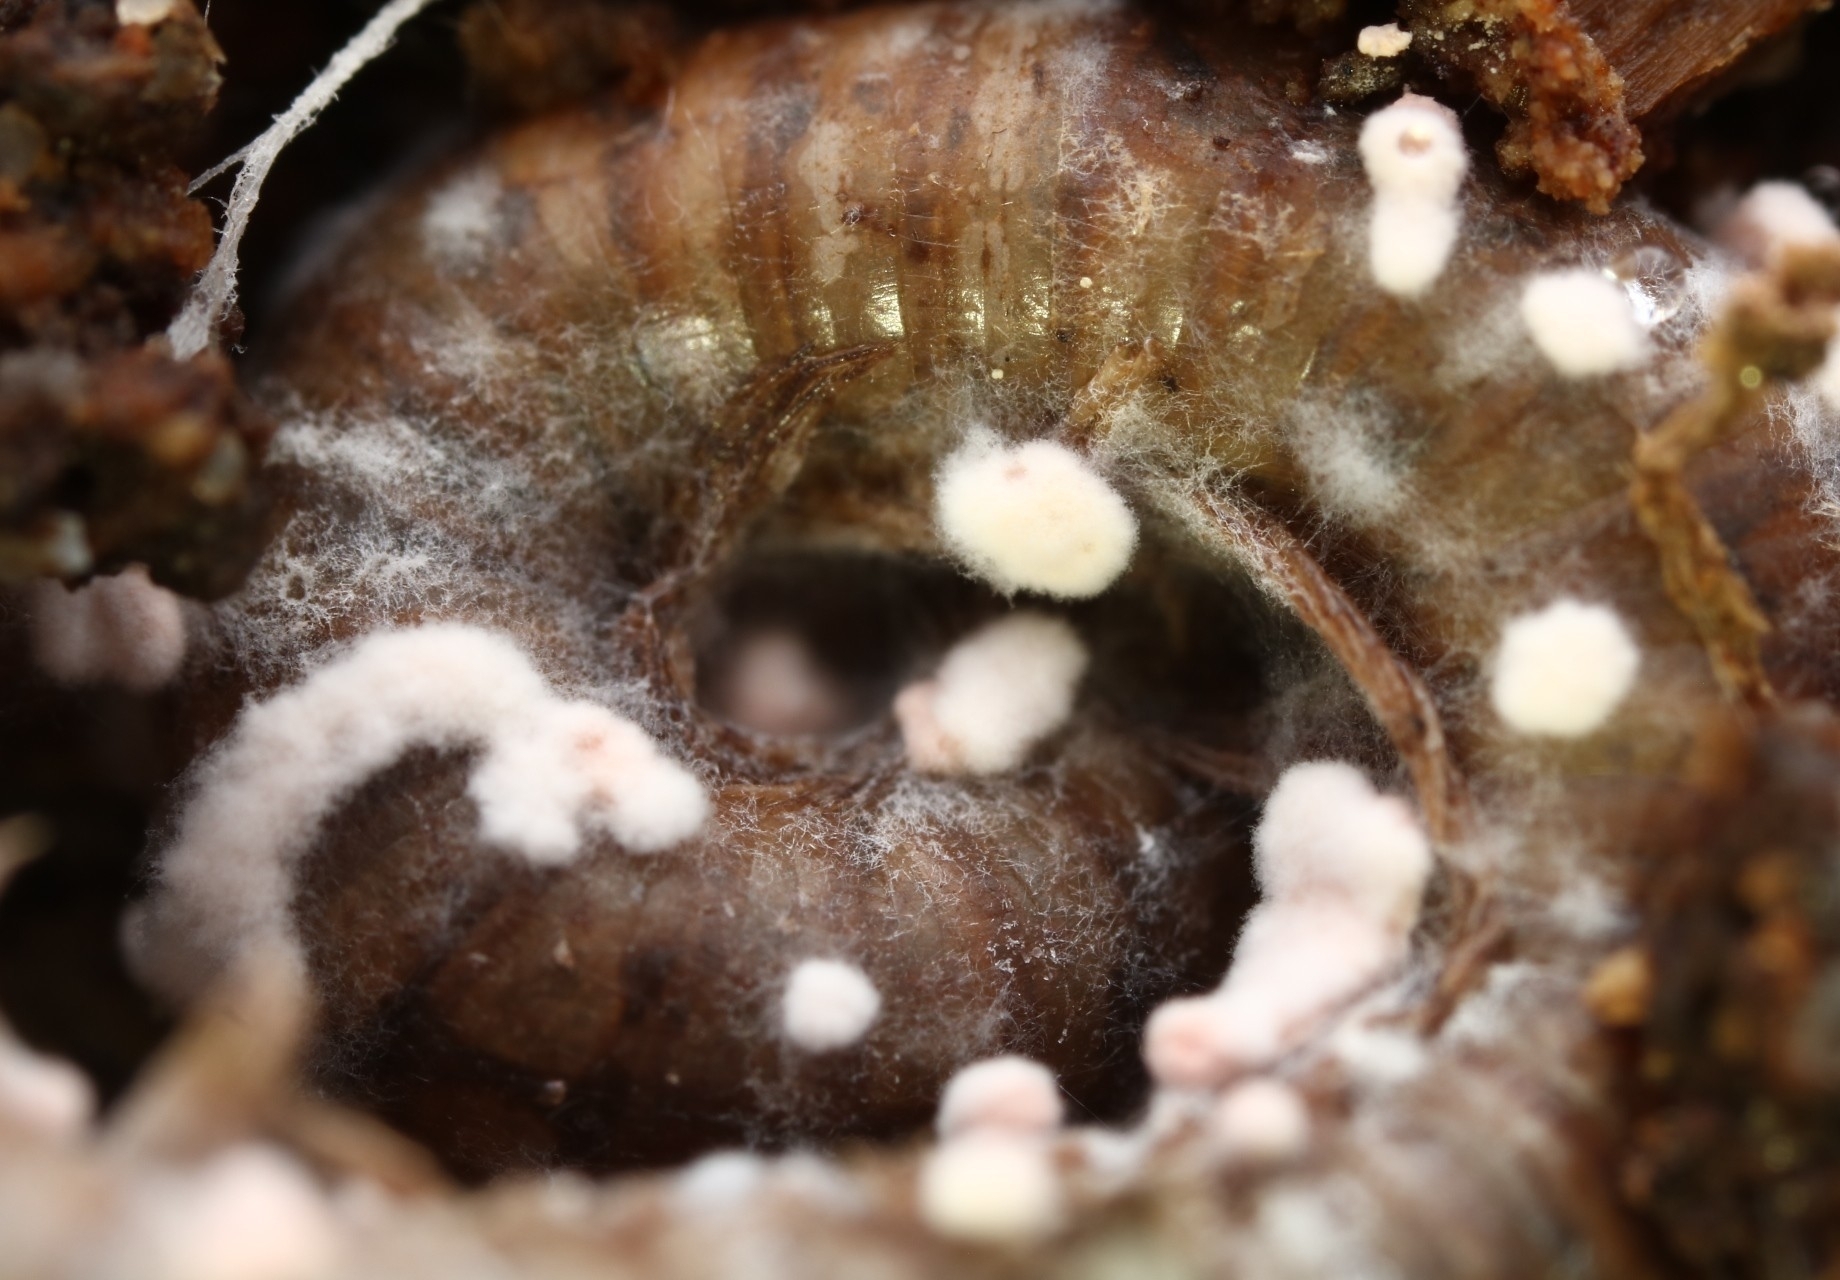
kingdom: Fungi
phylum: Ascomycota
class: Sordariomycetes
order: Hypocreales
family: Cordycipitaceae
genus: Beauveria
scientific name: Beauveria bassiana
